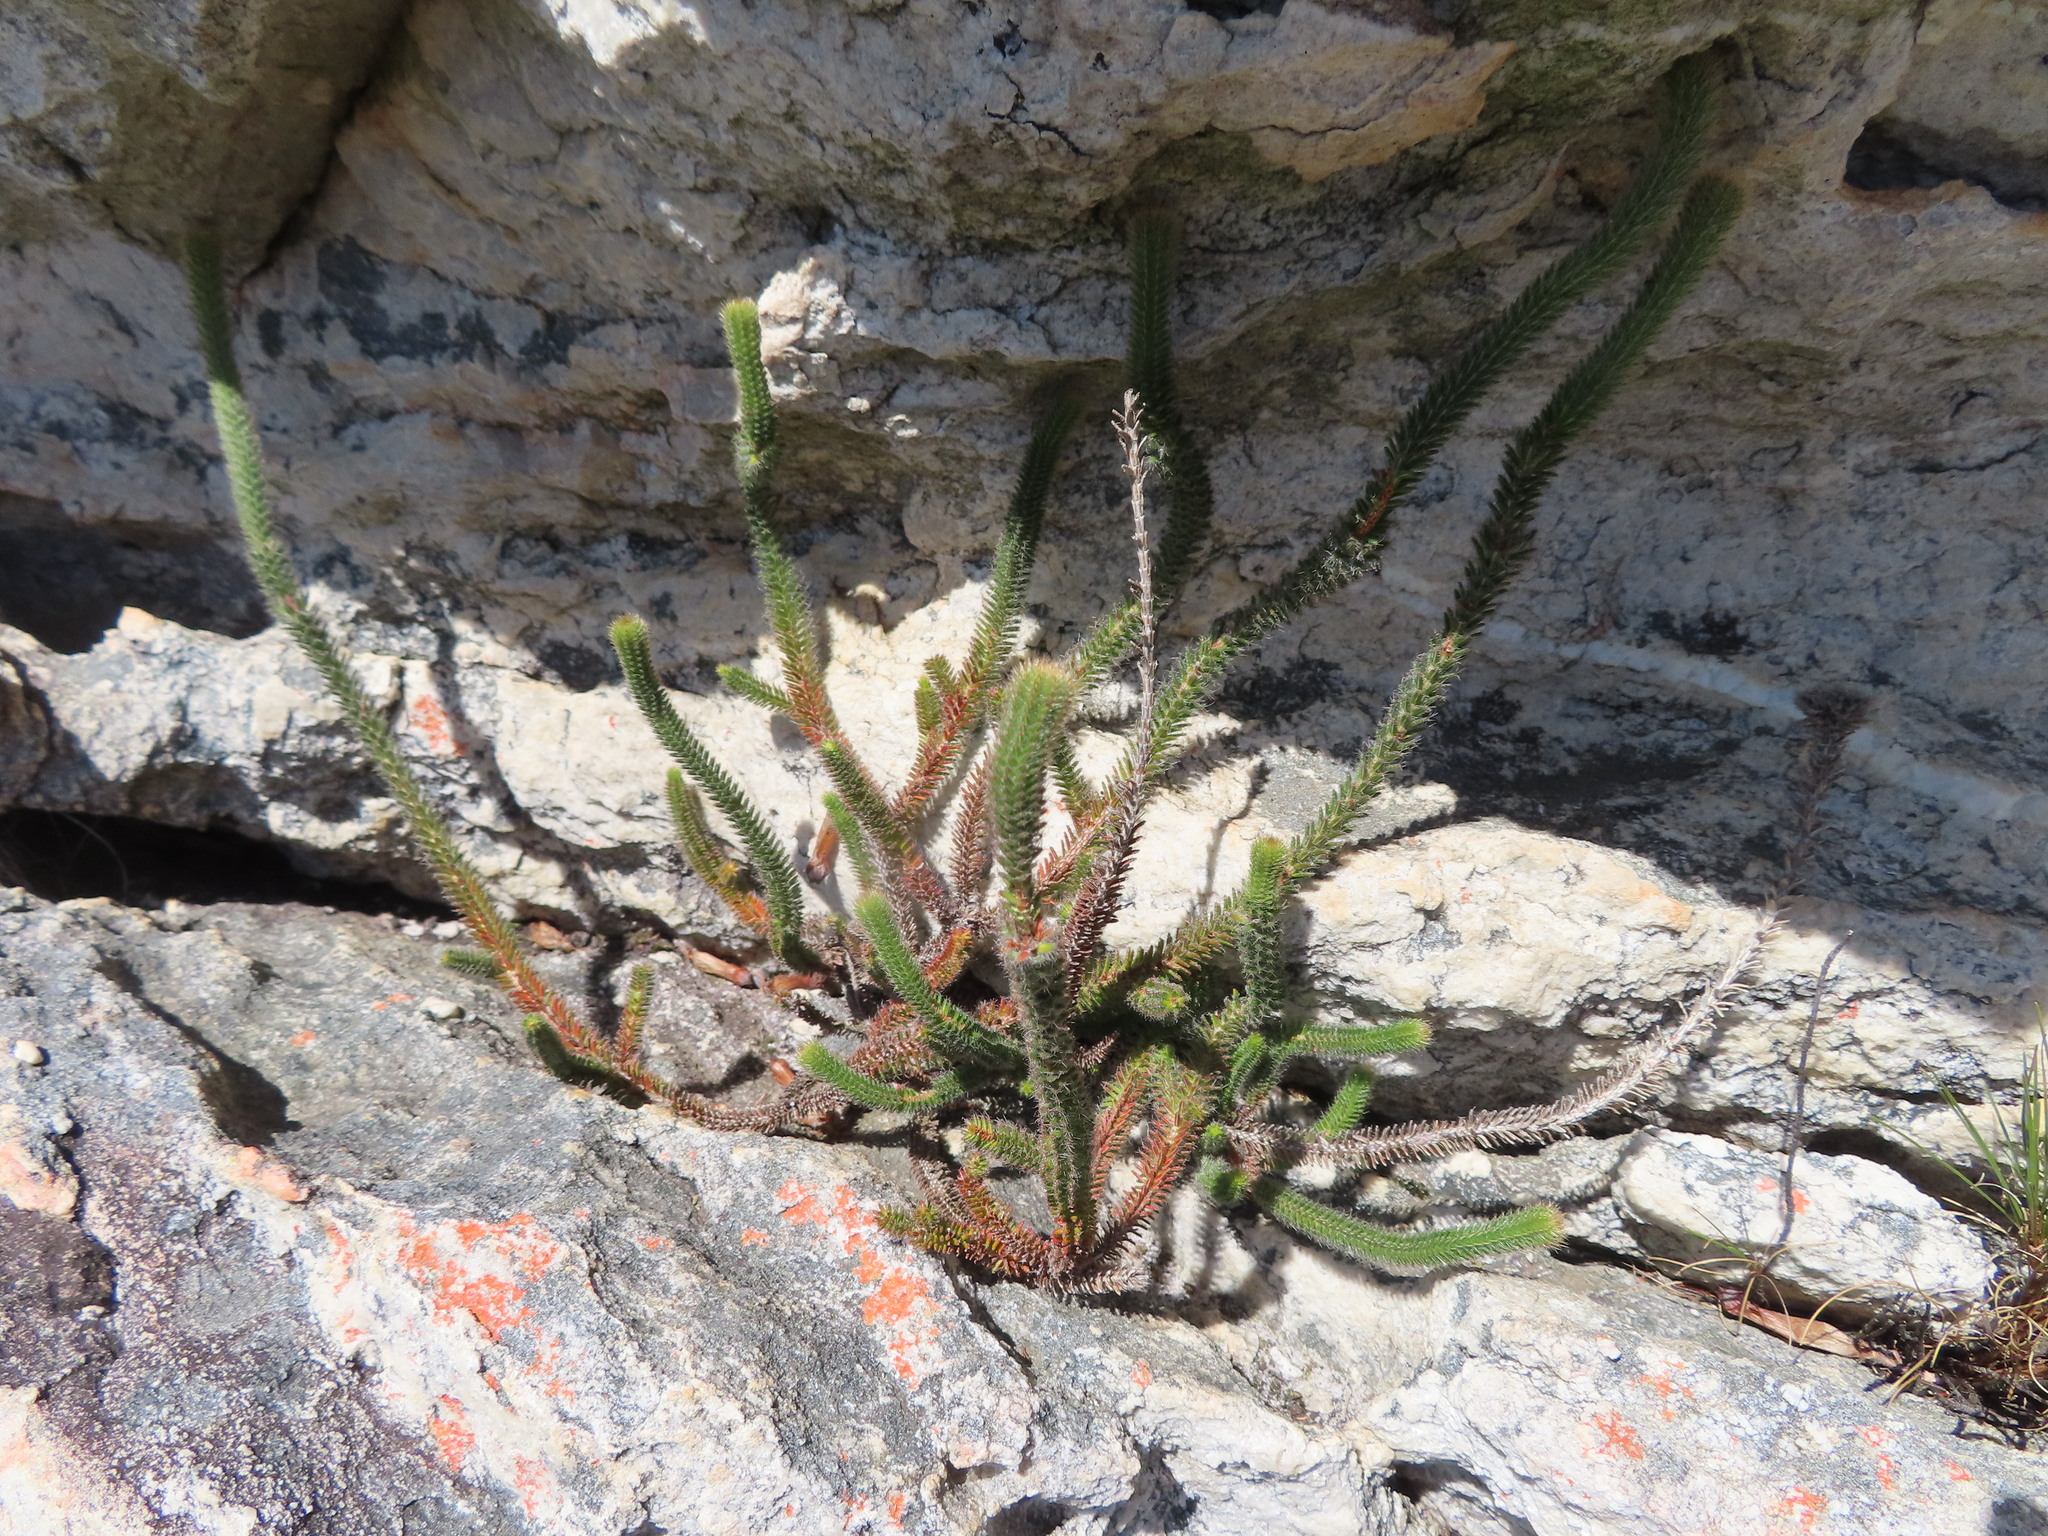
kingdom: Plantae
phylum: Tracheophyta
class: Magnoliopsida
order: Ericales
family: Ericaceae
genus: Erica
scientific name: Erica massonii
